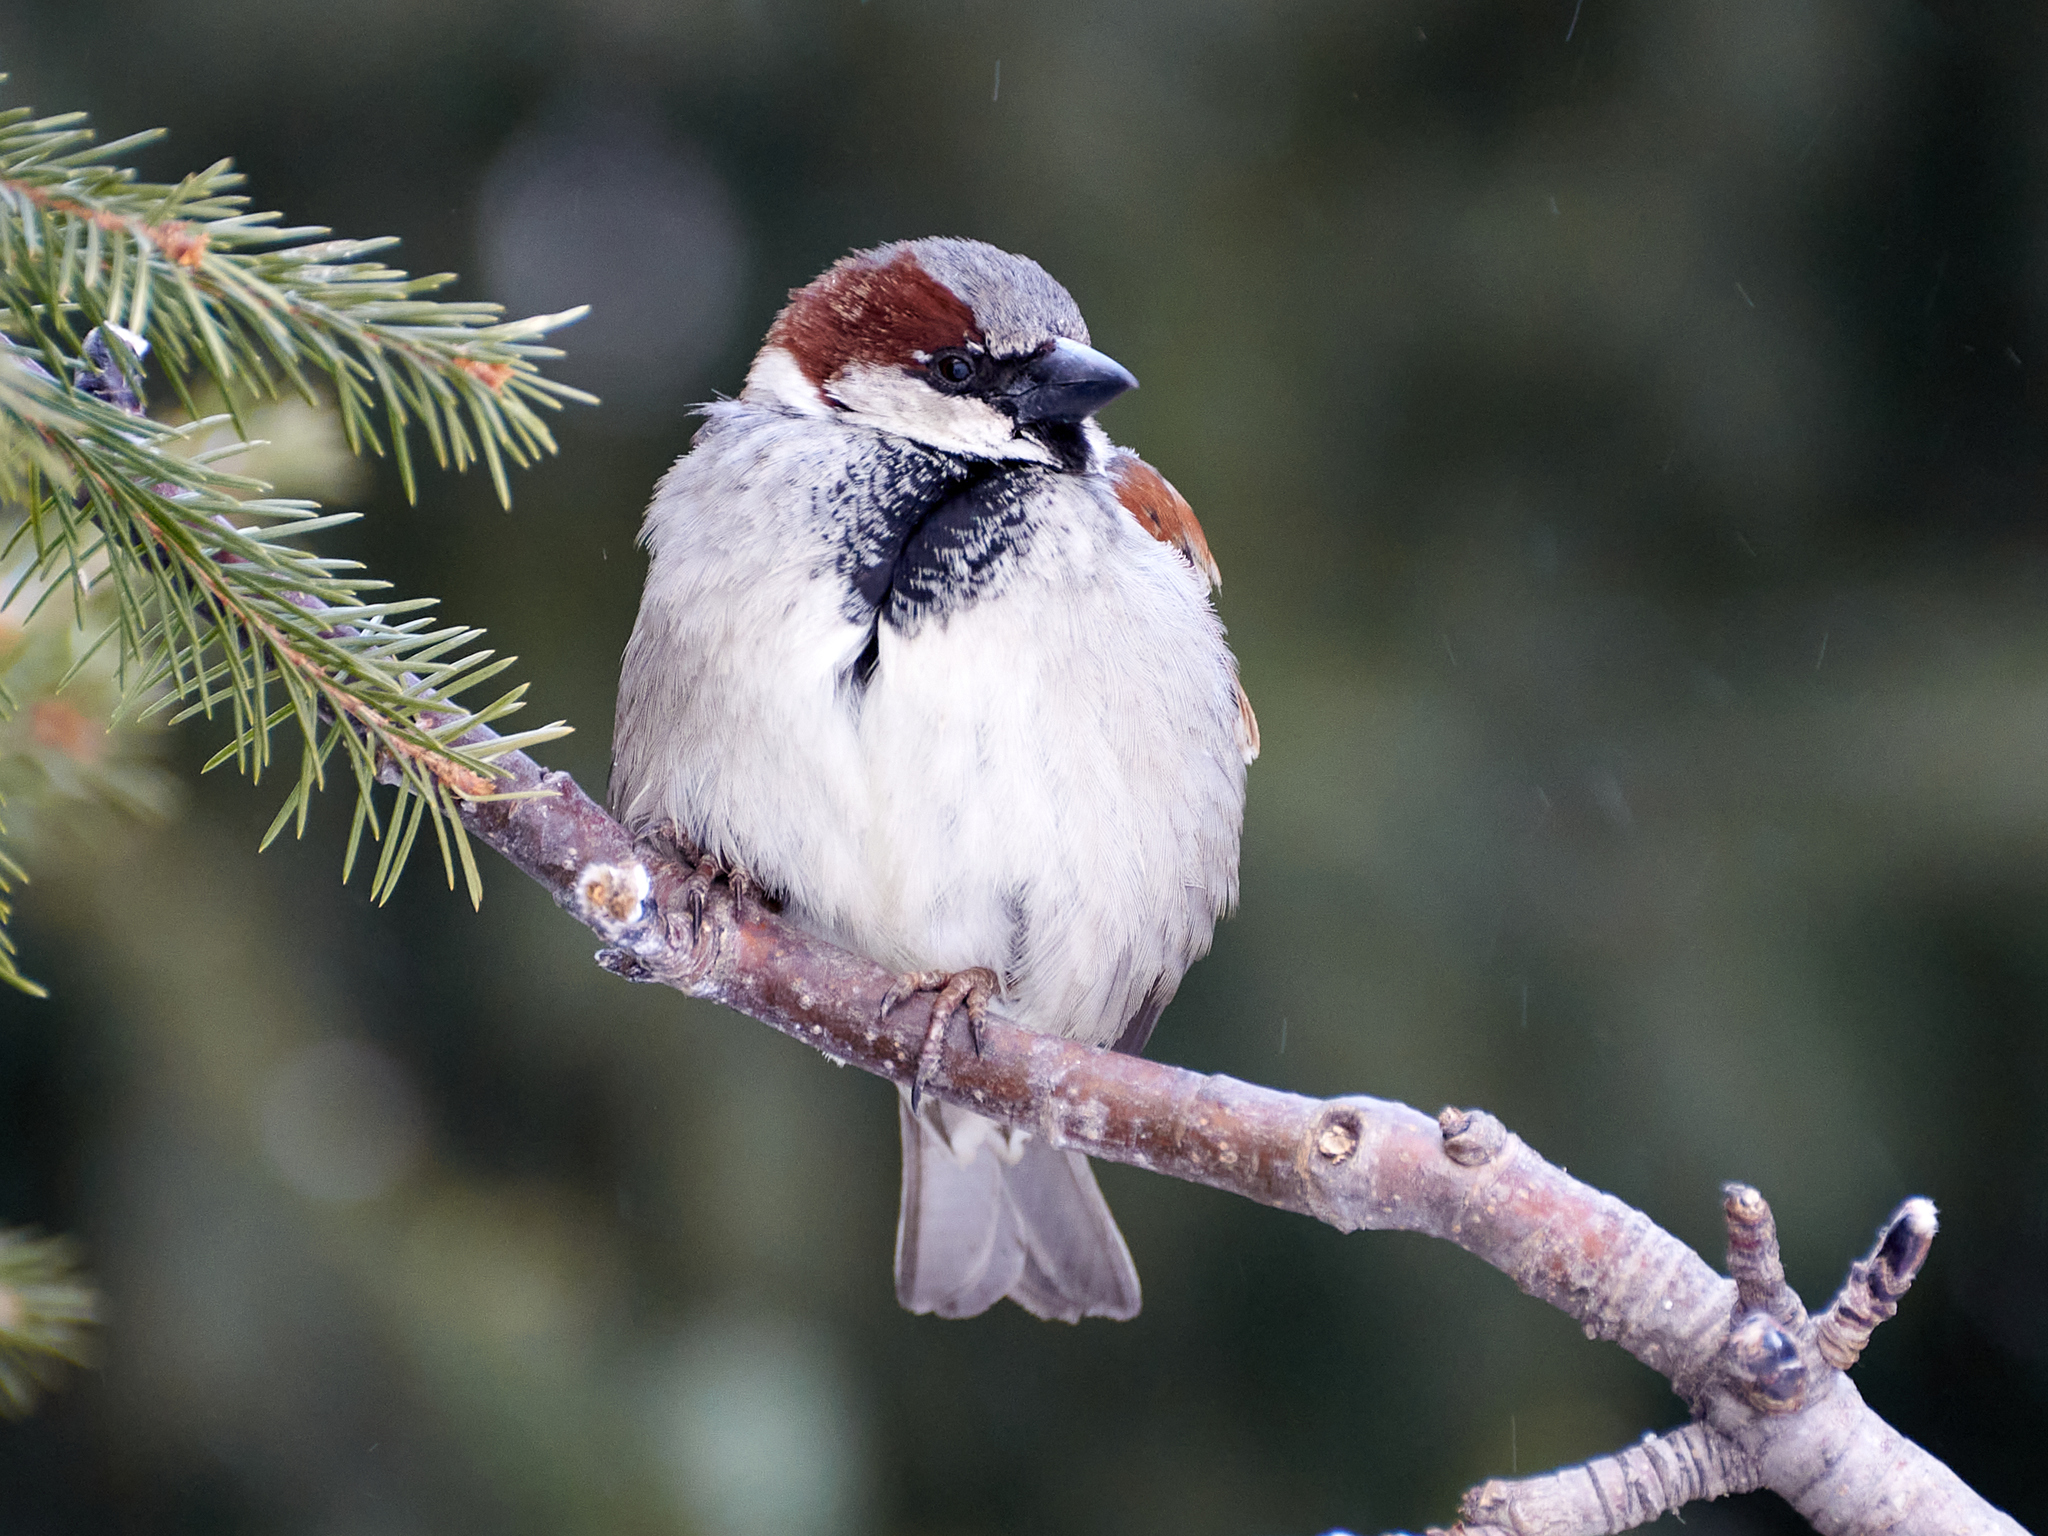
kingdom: Animalia
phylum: Chordata
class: Aves
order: Passeriformes
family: Passeridae
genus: Passer
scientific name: Passer domesticus
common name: House sparrow
